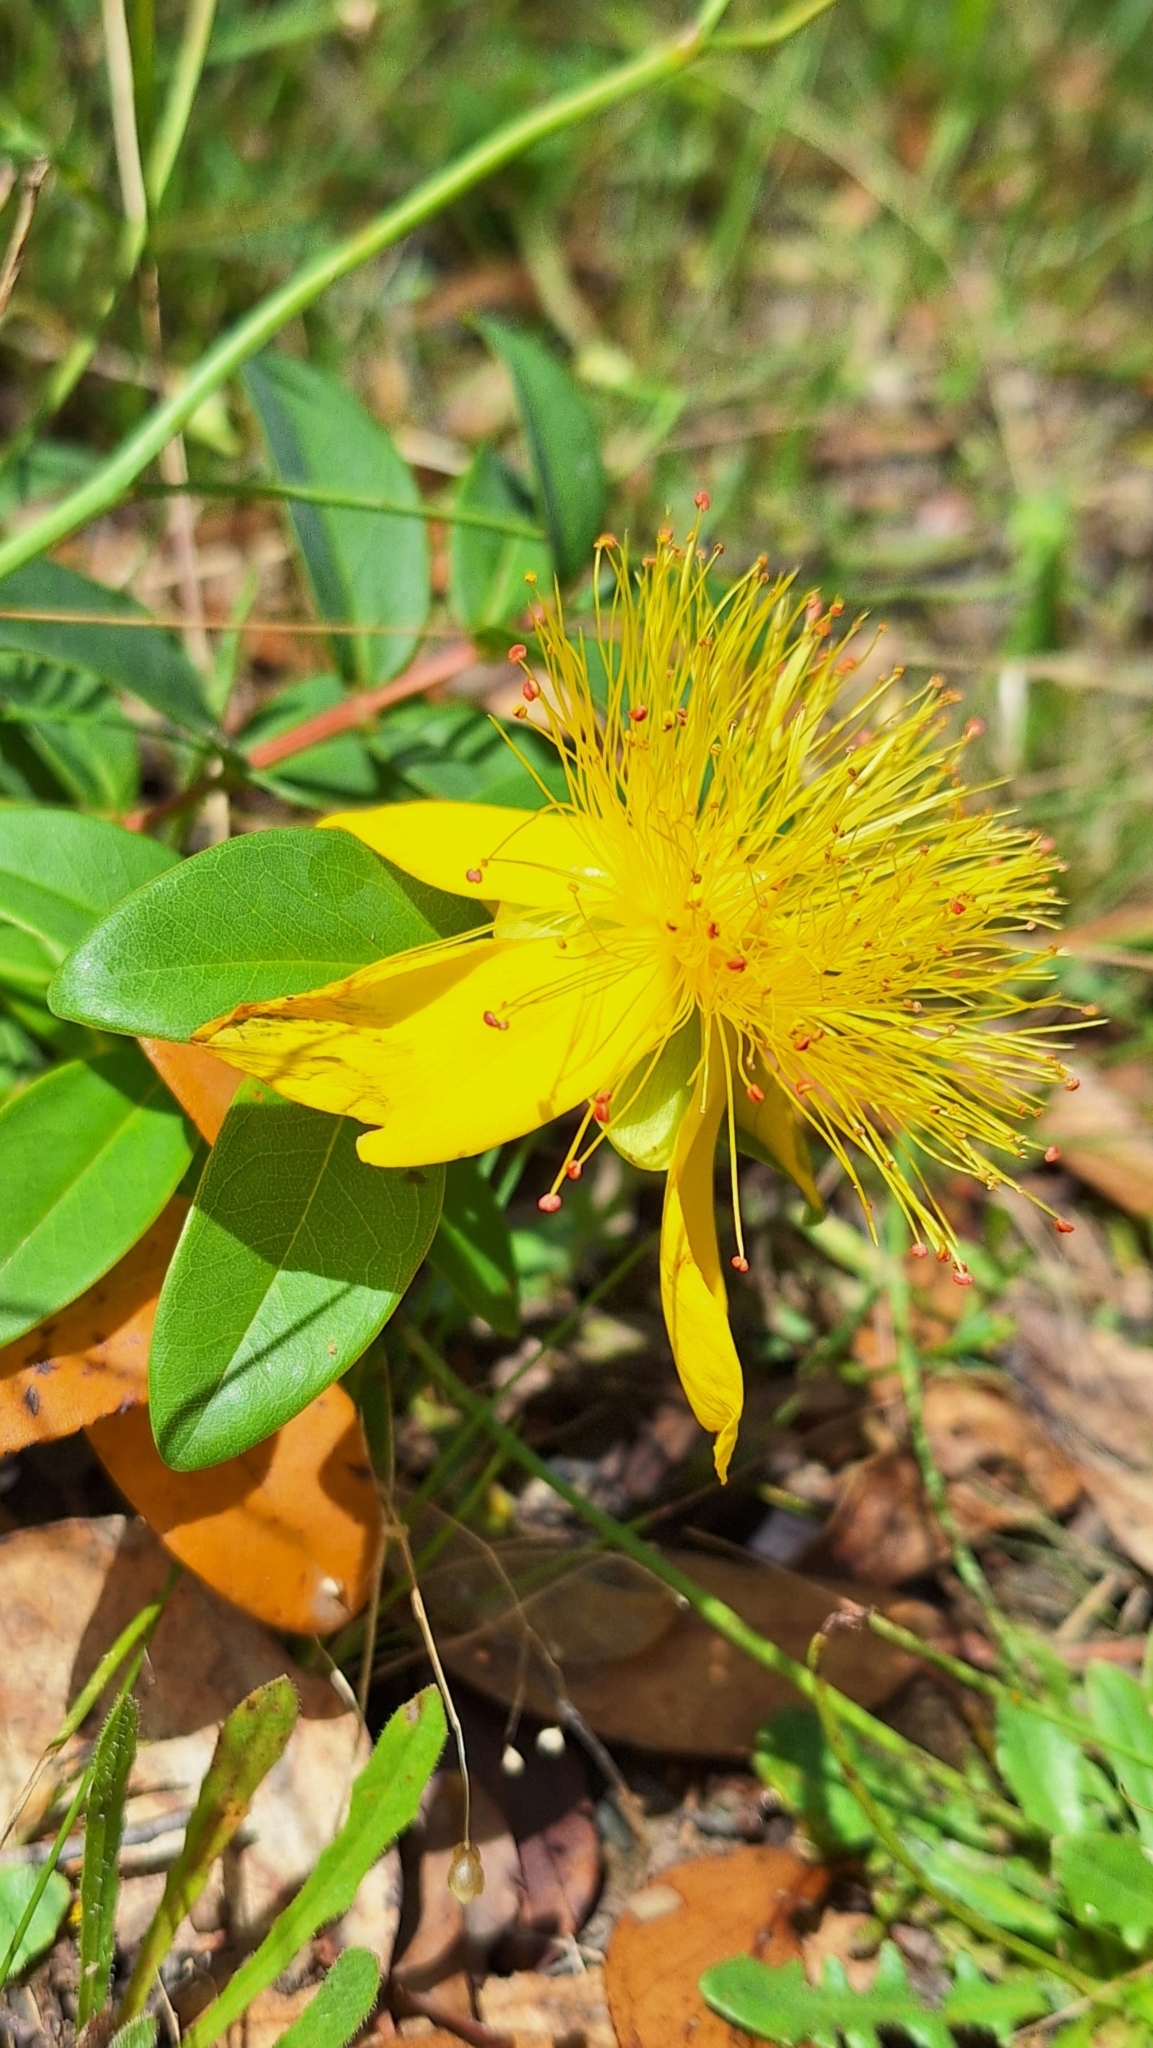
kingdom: Plantae
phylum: Tracheophyta
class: Magnoliopsida
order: Malpighiales
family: Hypericaceae
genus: Hypericum
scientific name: Hypericum calycinum
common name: Rose-of-sharon
